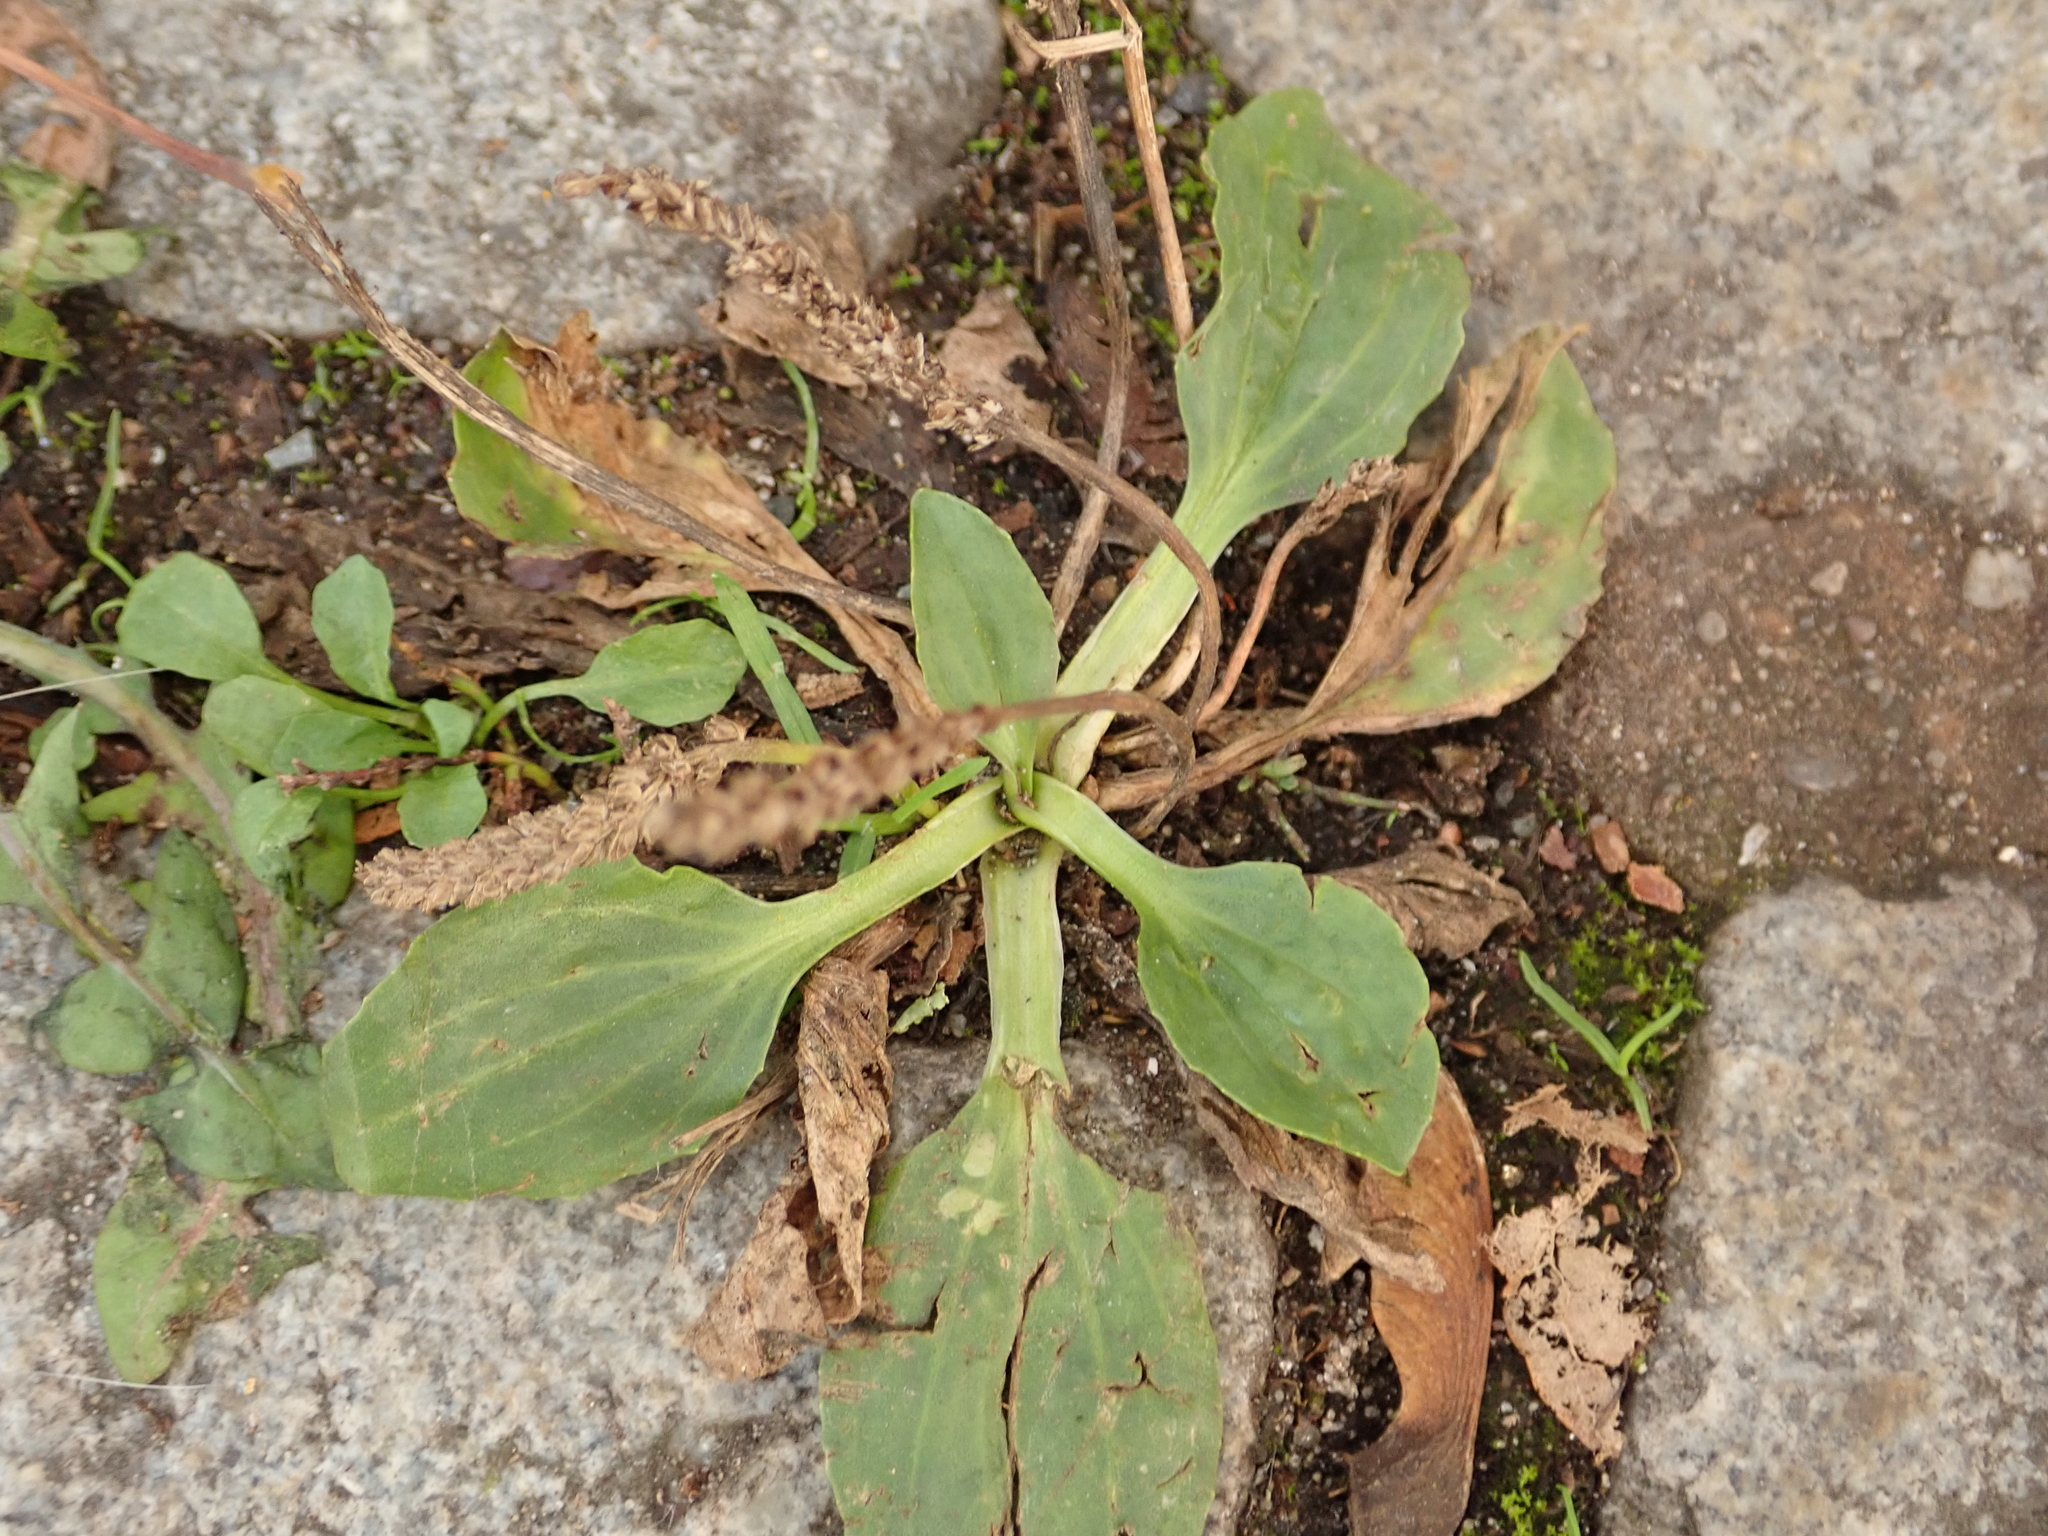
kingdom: Plantae
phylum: Tracheophyta
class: Magnoliopsida
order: Lamiales
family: Plantaginaceae
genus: Plantago
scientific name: Plantago major
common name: Common plantain
